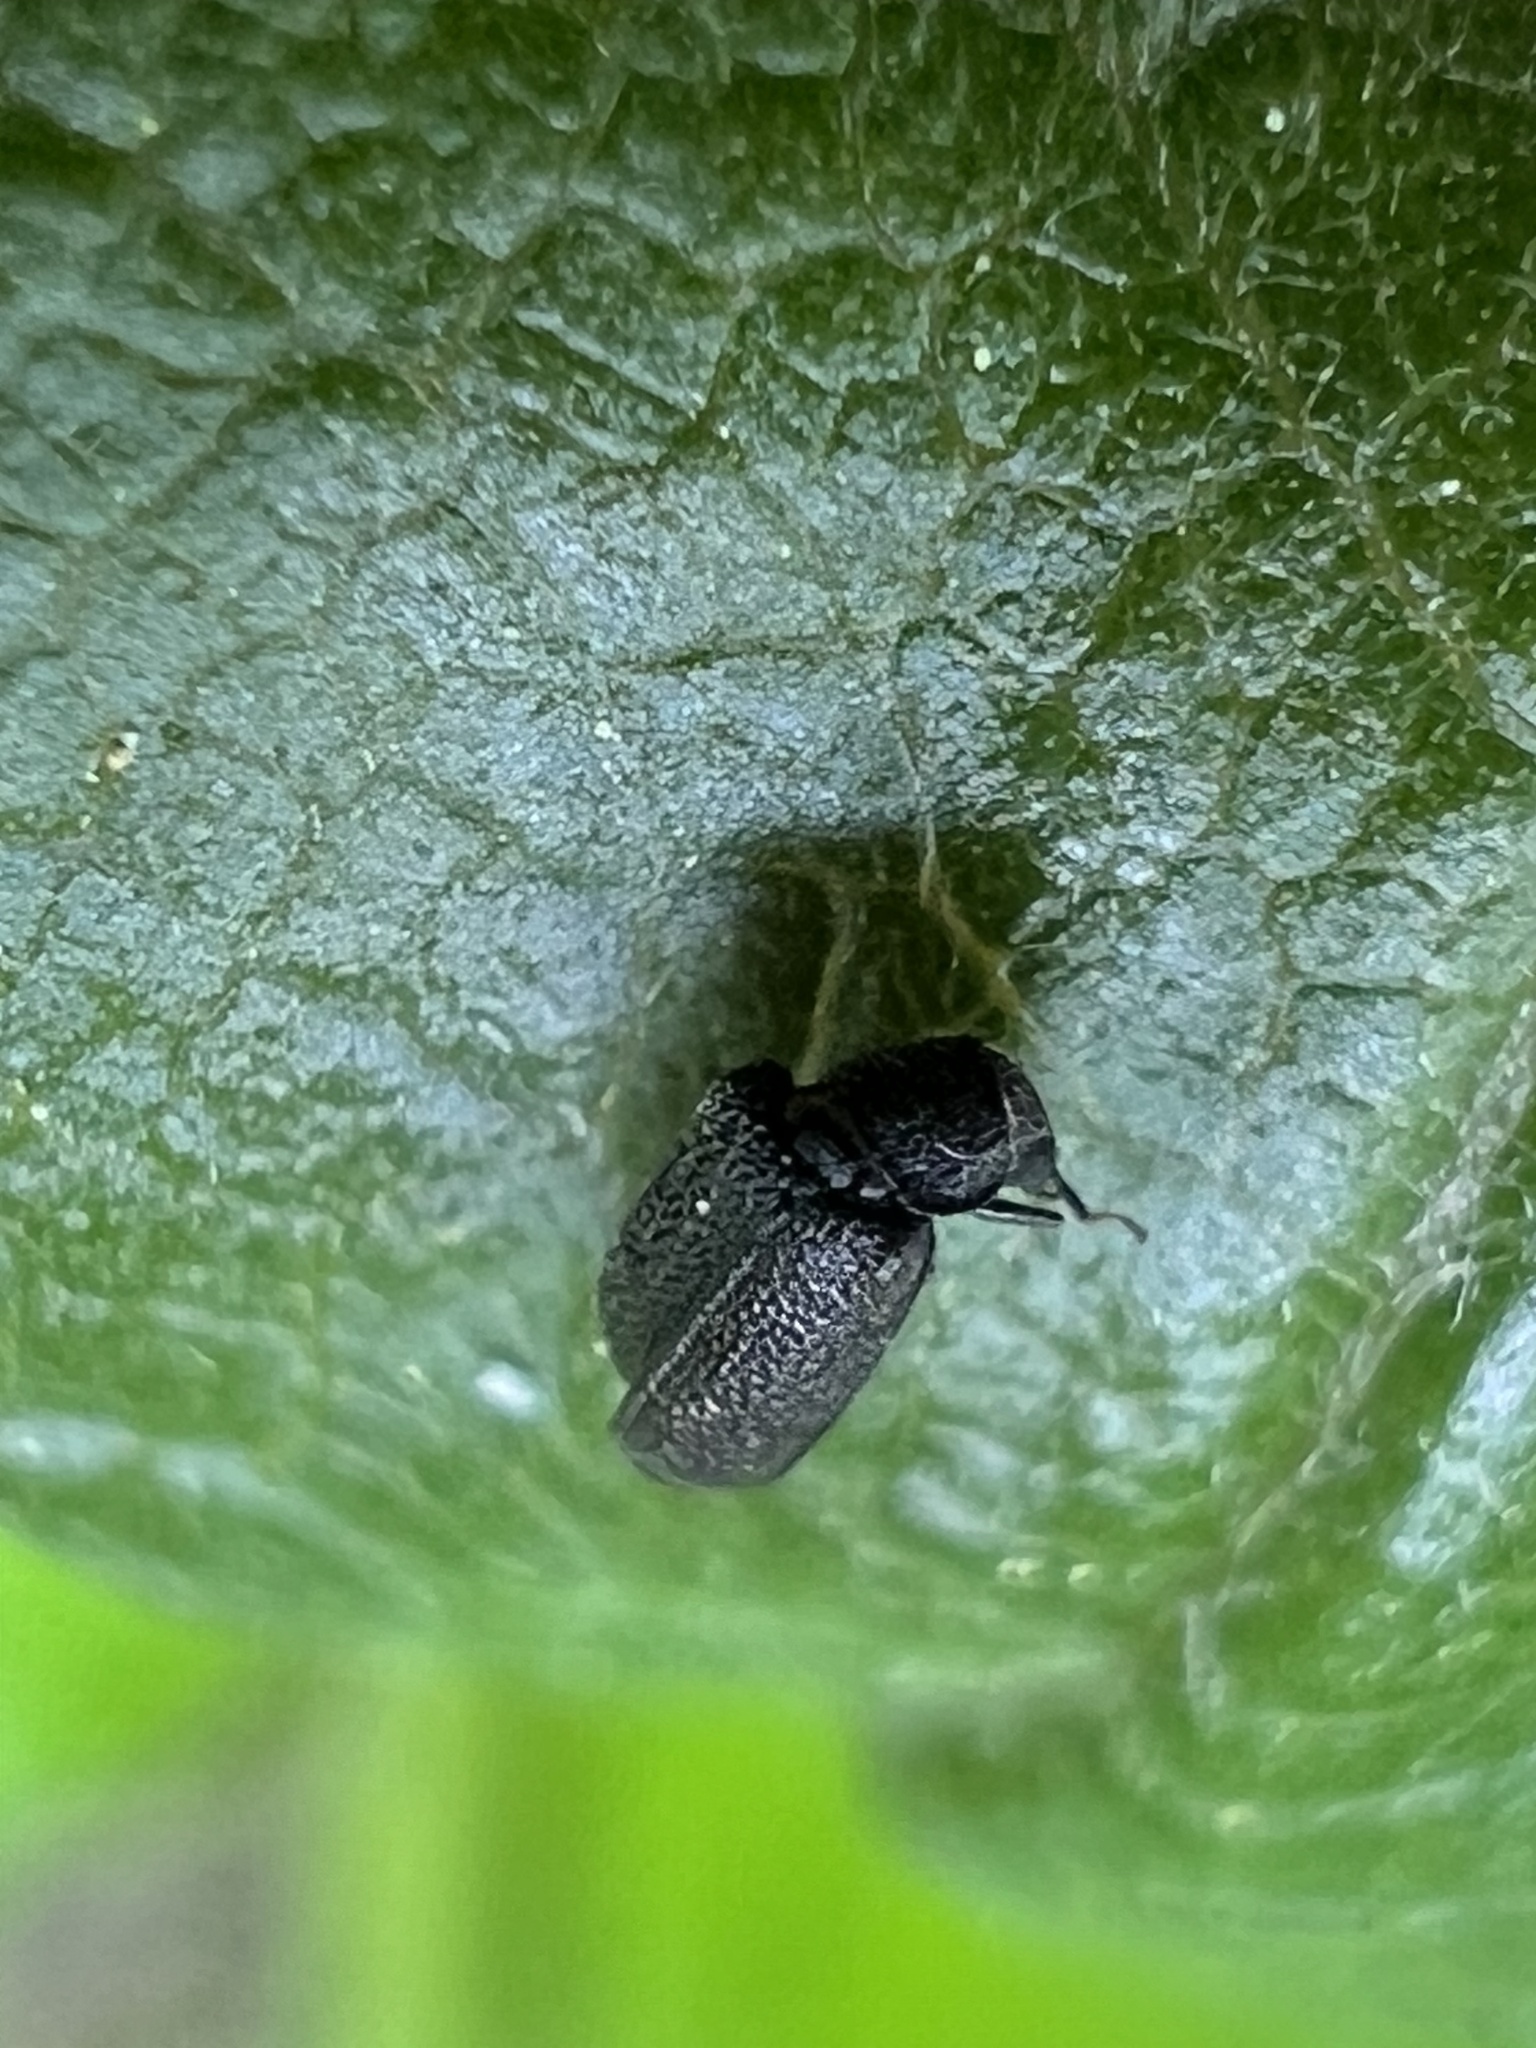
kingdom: Animalia
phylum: Arthropoda
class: Insecta
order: Coleoptera
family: Melyridae
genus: Melyrodes
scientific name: Melyrodes
